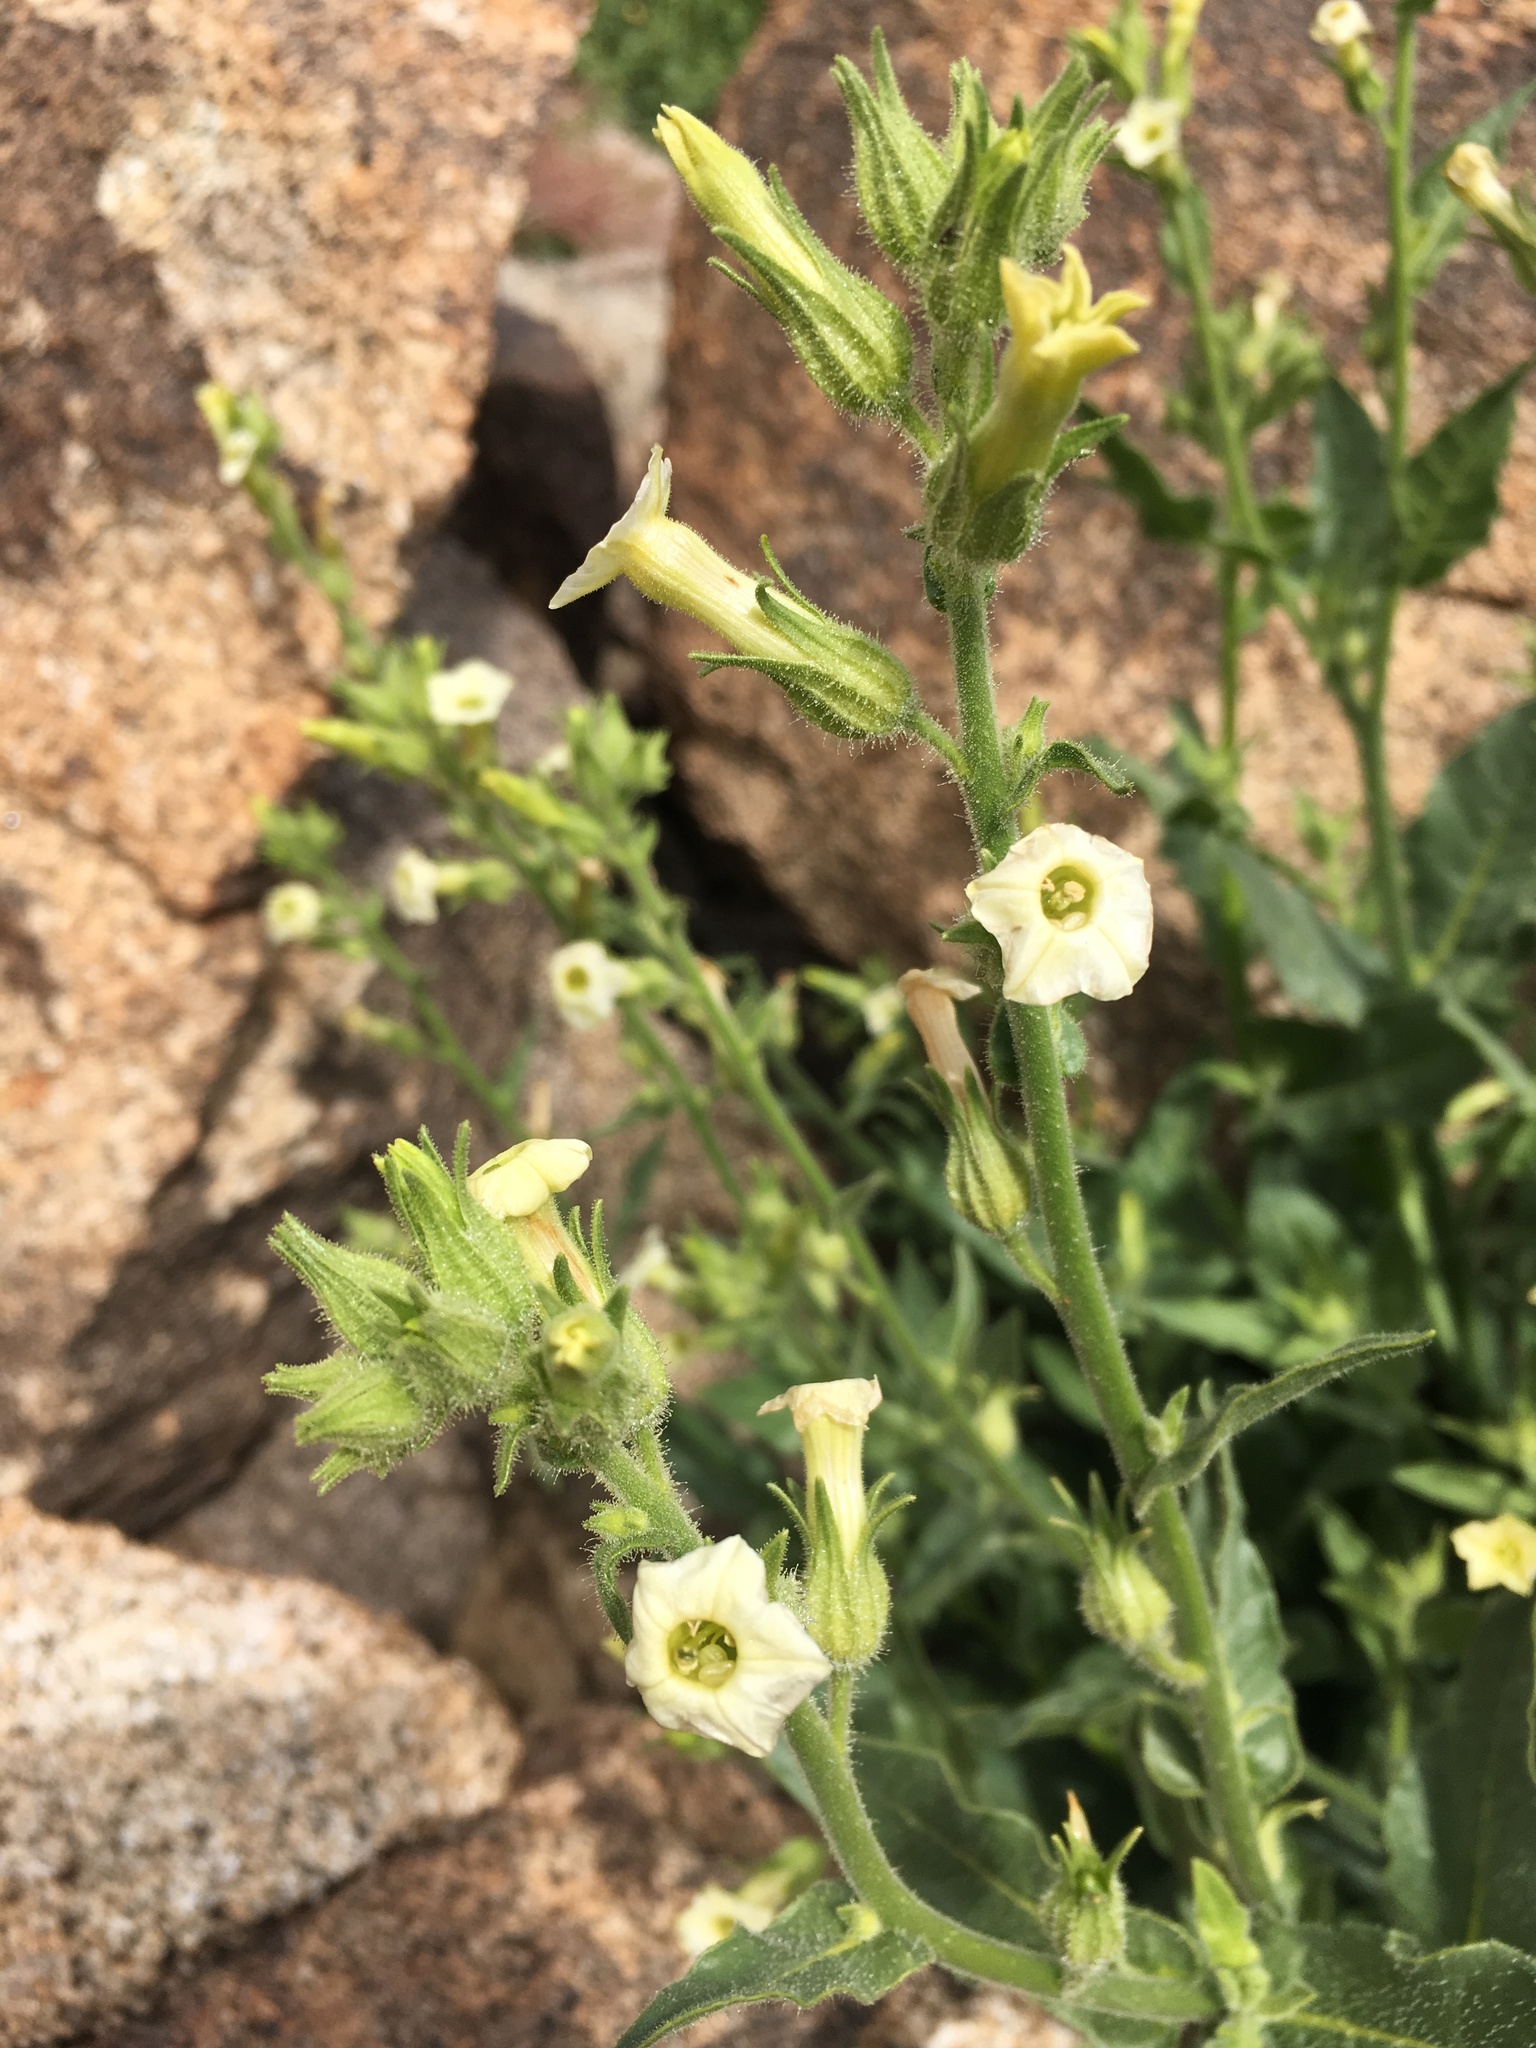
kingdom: Plantae
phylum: Tracheophyta
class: Magnoliopsida
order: Solanales
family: Solanaceae
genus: Nicotiana
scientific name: Nicotiana obtusifolia
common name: Desert tobacco
